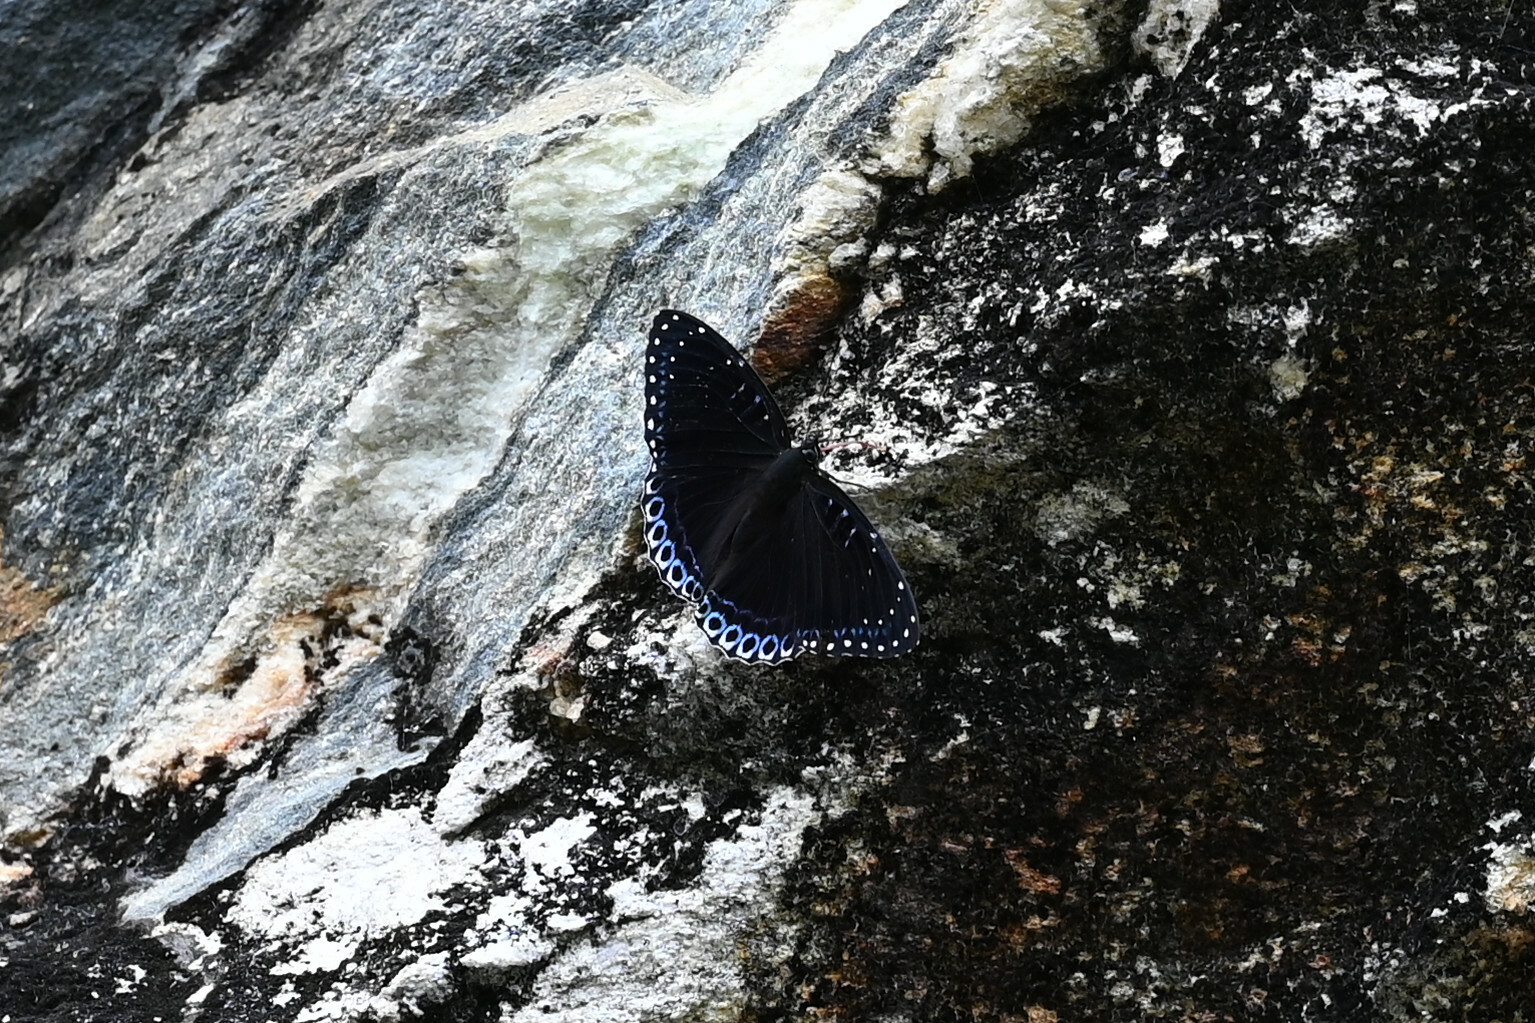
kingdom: Animalia
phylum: Arthropoda
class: Insecta
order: Lepidoptera
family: Nymphalidae
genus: Stibochiona
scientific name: Stibochiona nicea
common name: Popinjay
